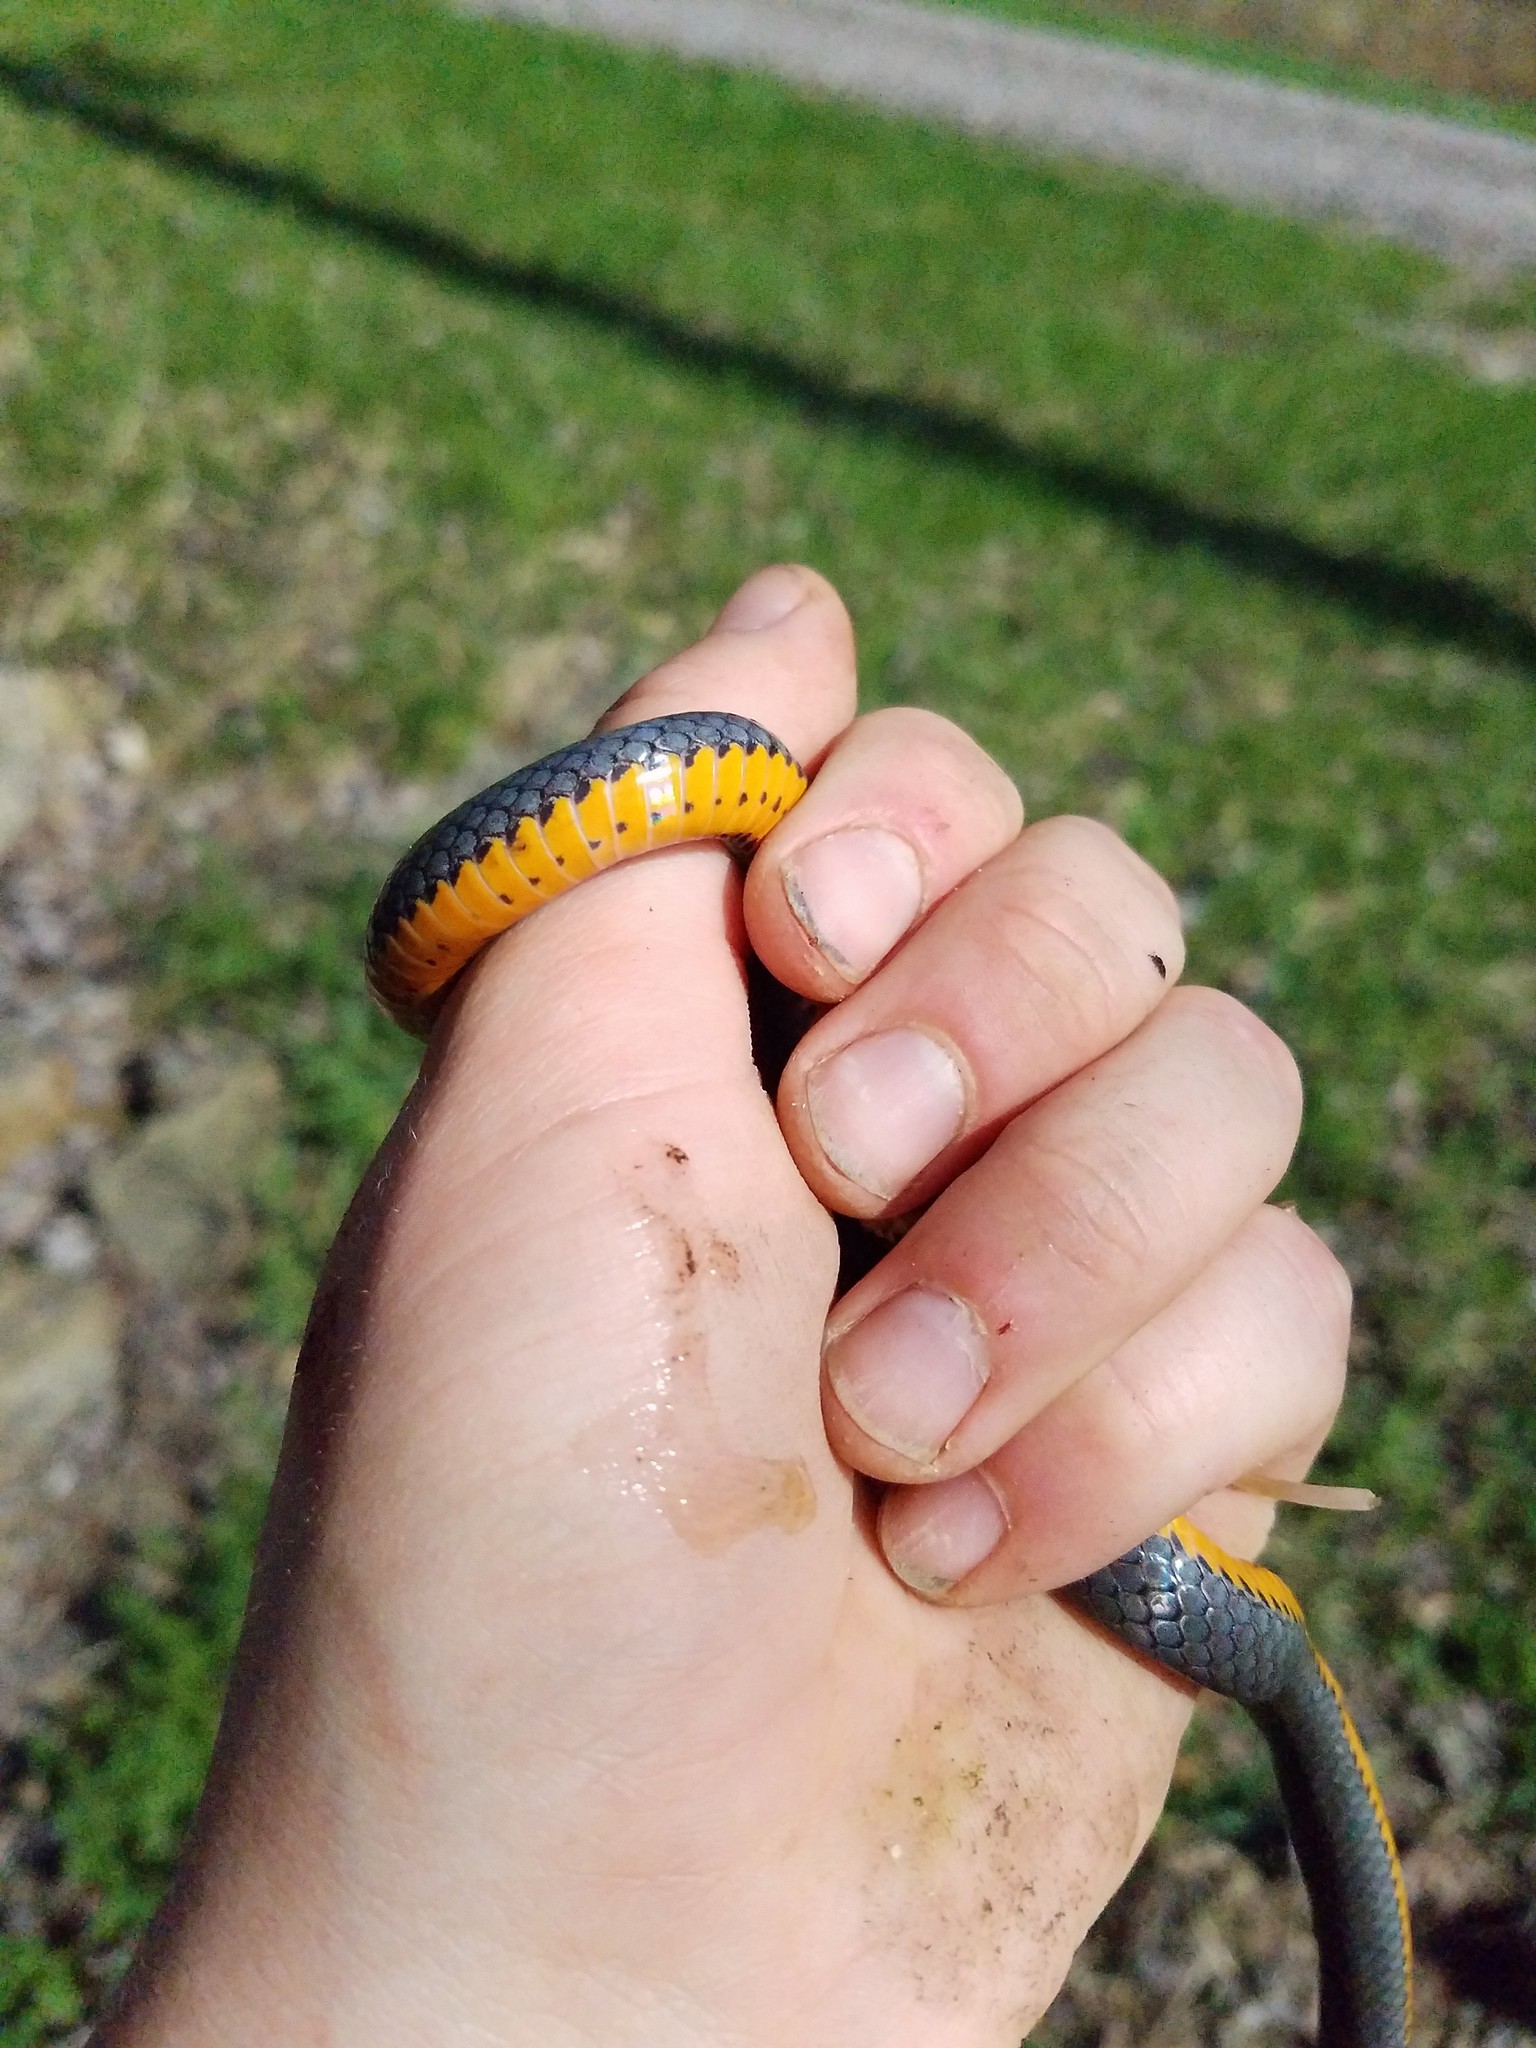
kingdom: Animalia
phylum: Chordata
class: Squamata
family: Colubridae
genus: Diadophis
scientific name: Diadophis punctatus
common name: Ringneck snake
